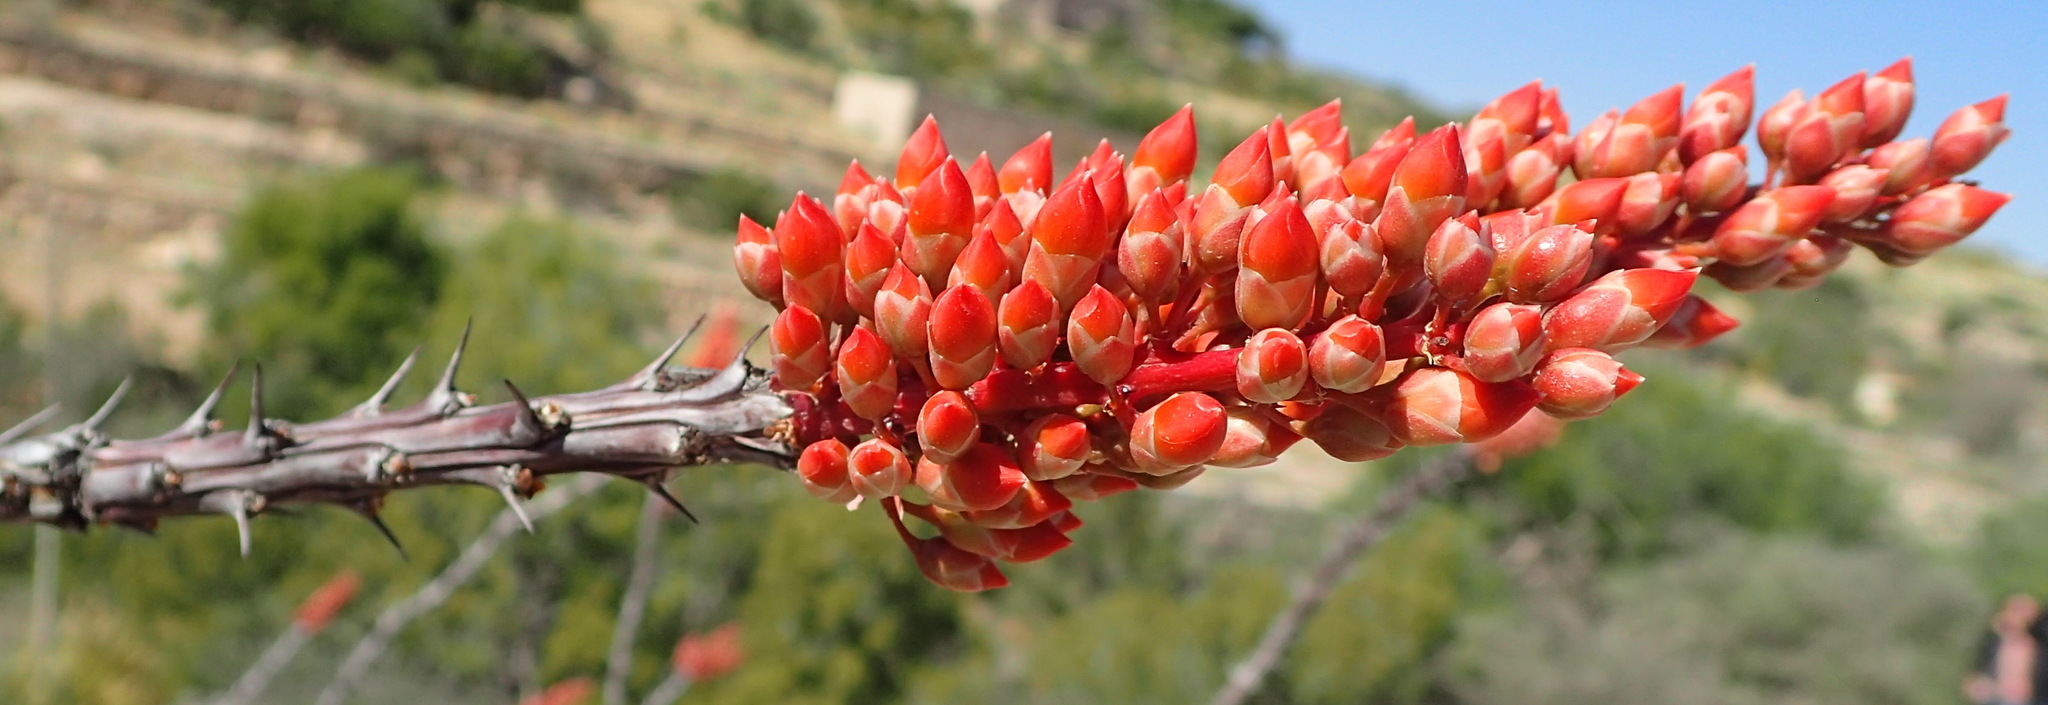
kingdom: Plantae
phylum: Tracheophyta
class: Magnoliopsida
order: Ericales
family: Fouquieriaceae
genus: Fouquieria
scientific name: Fouquieria splendens
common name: Vine-cactus
